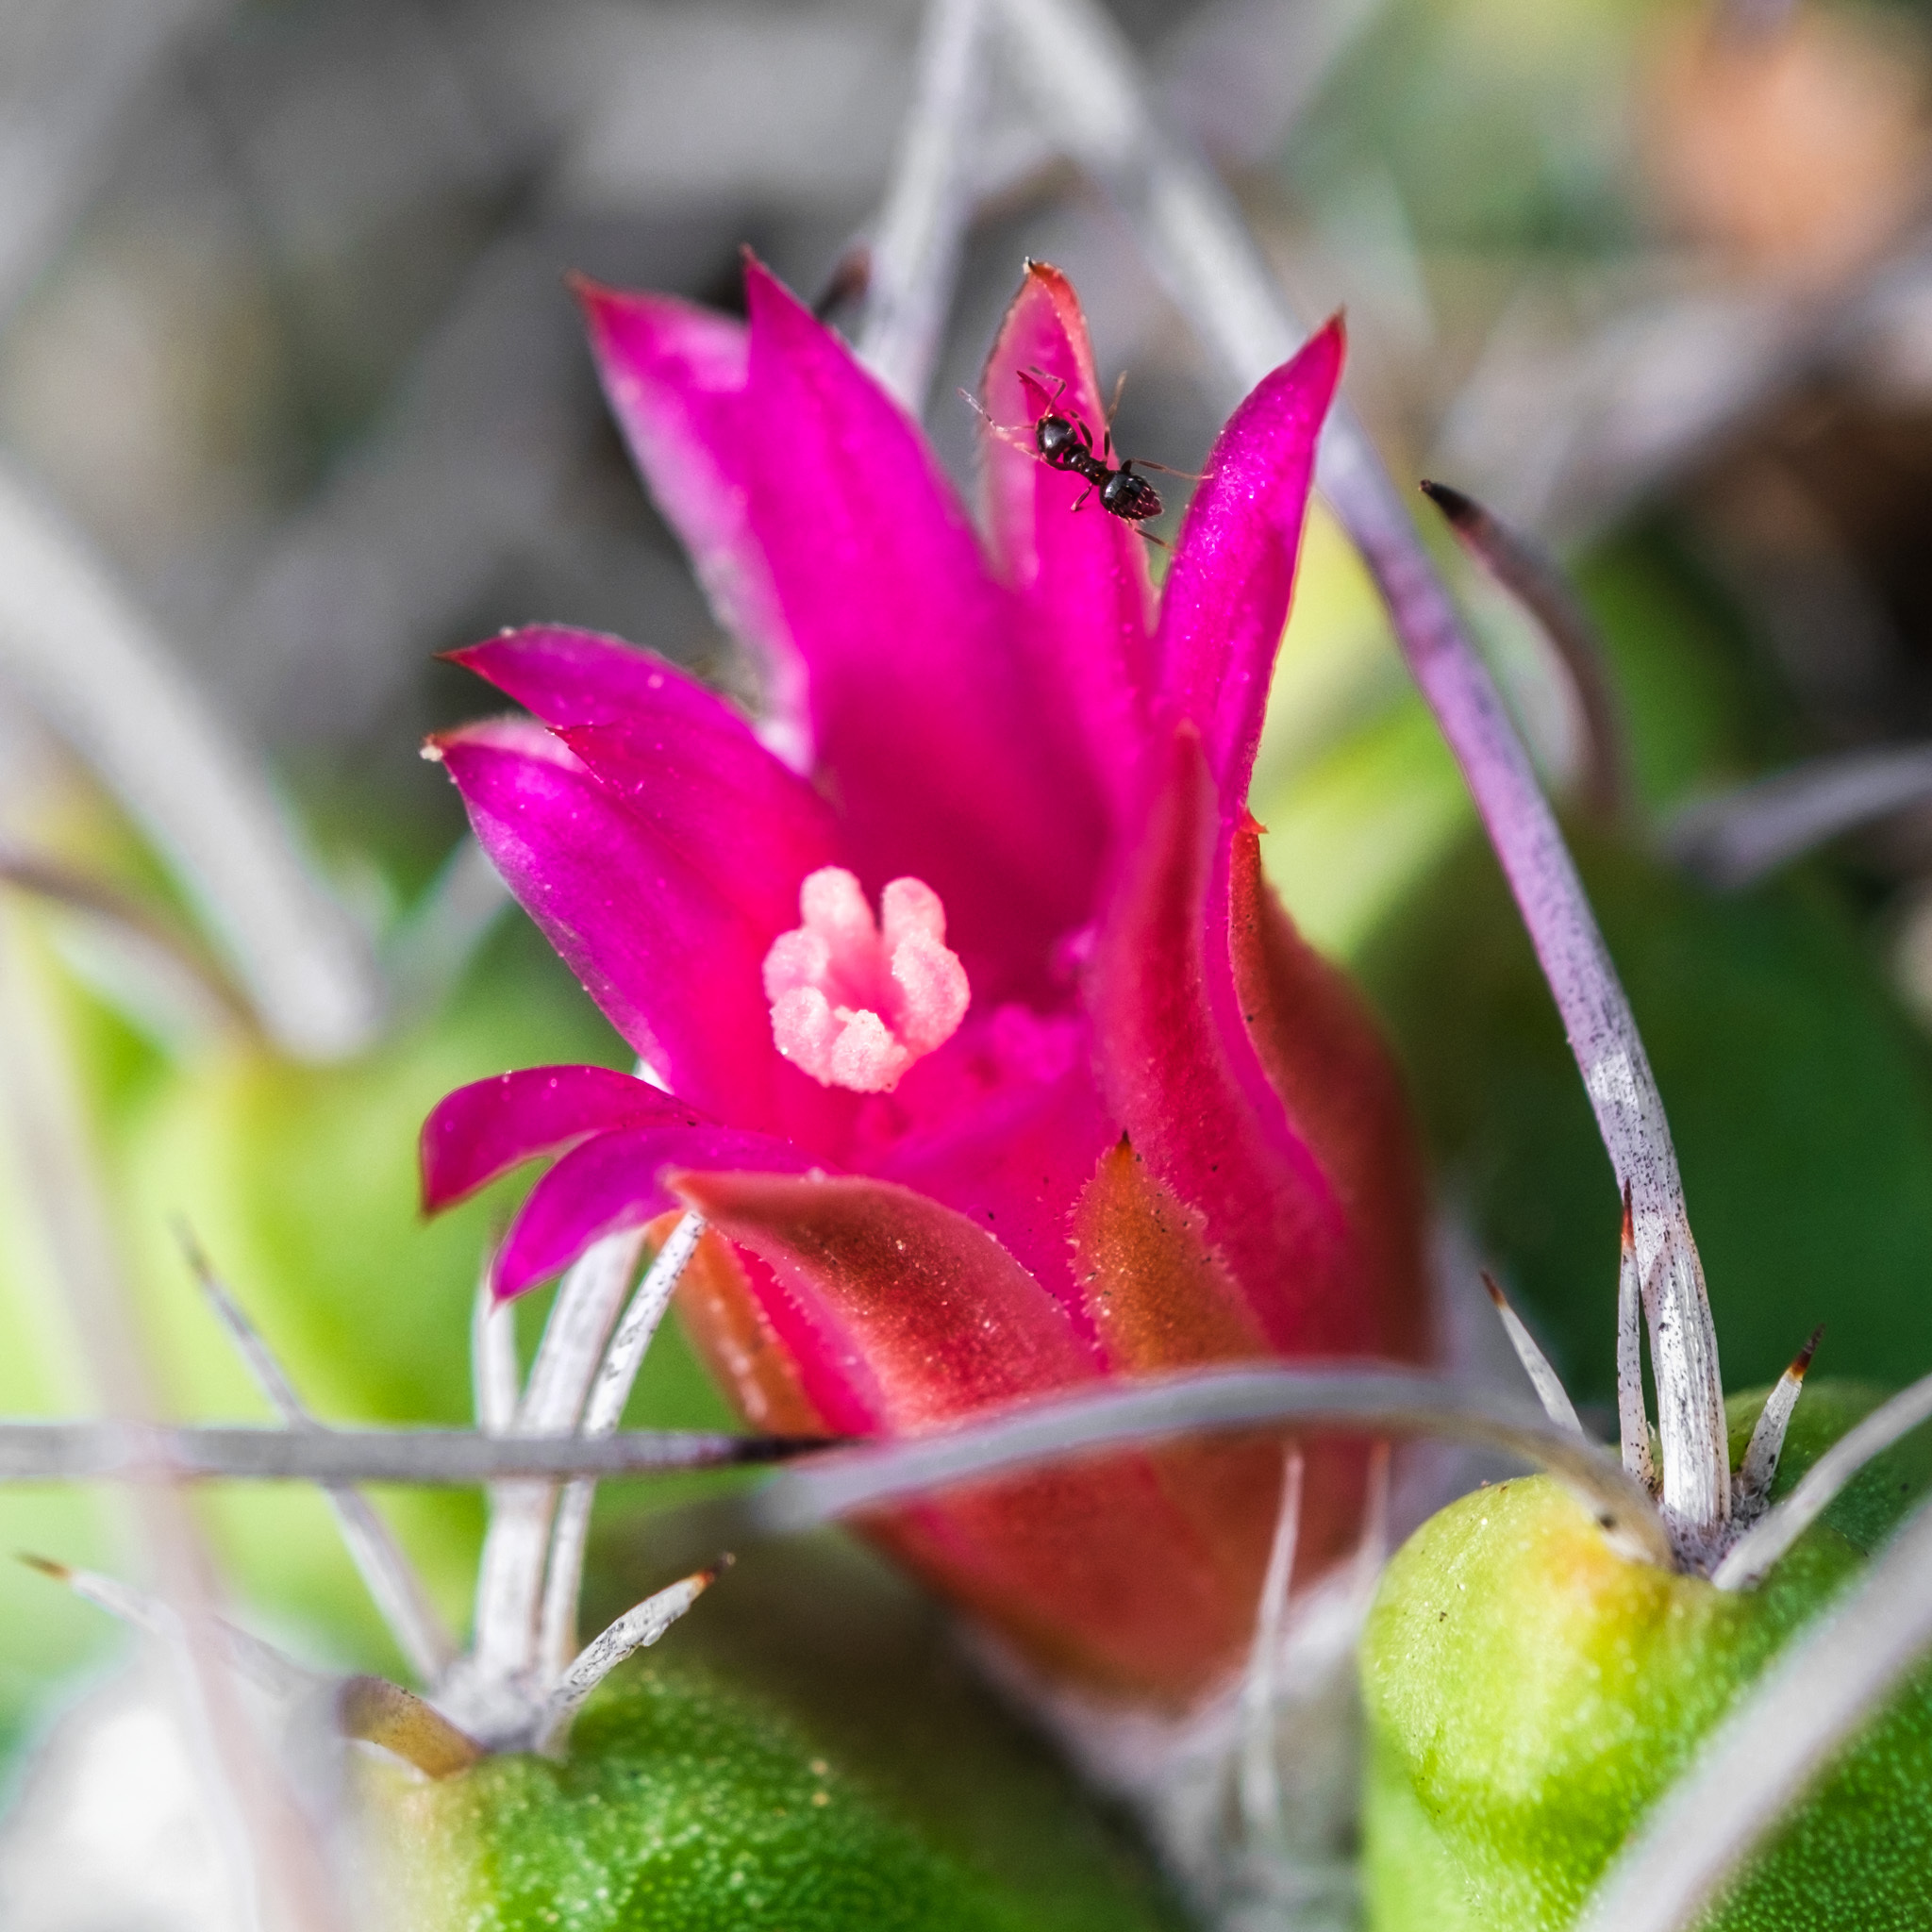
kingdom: Animalia
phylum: Arthropoda
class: Insecta
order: Hymenoptera
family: Formicidae
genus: Brachymyrmex
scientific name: Brachymyrmex patagonicus
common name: Dark rover ant
